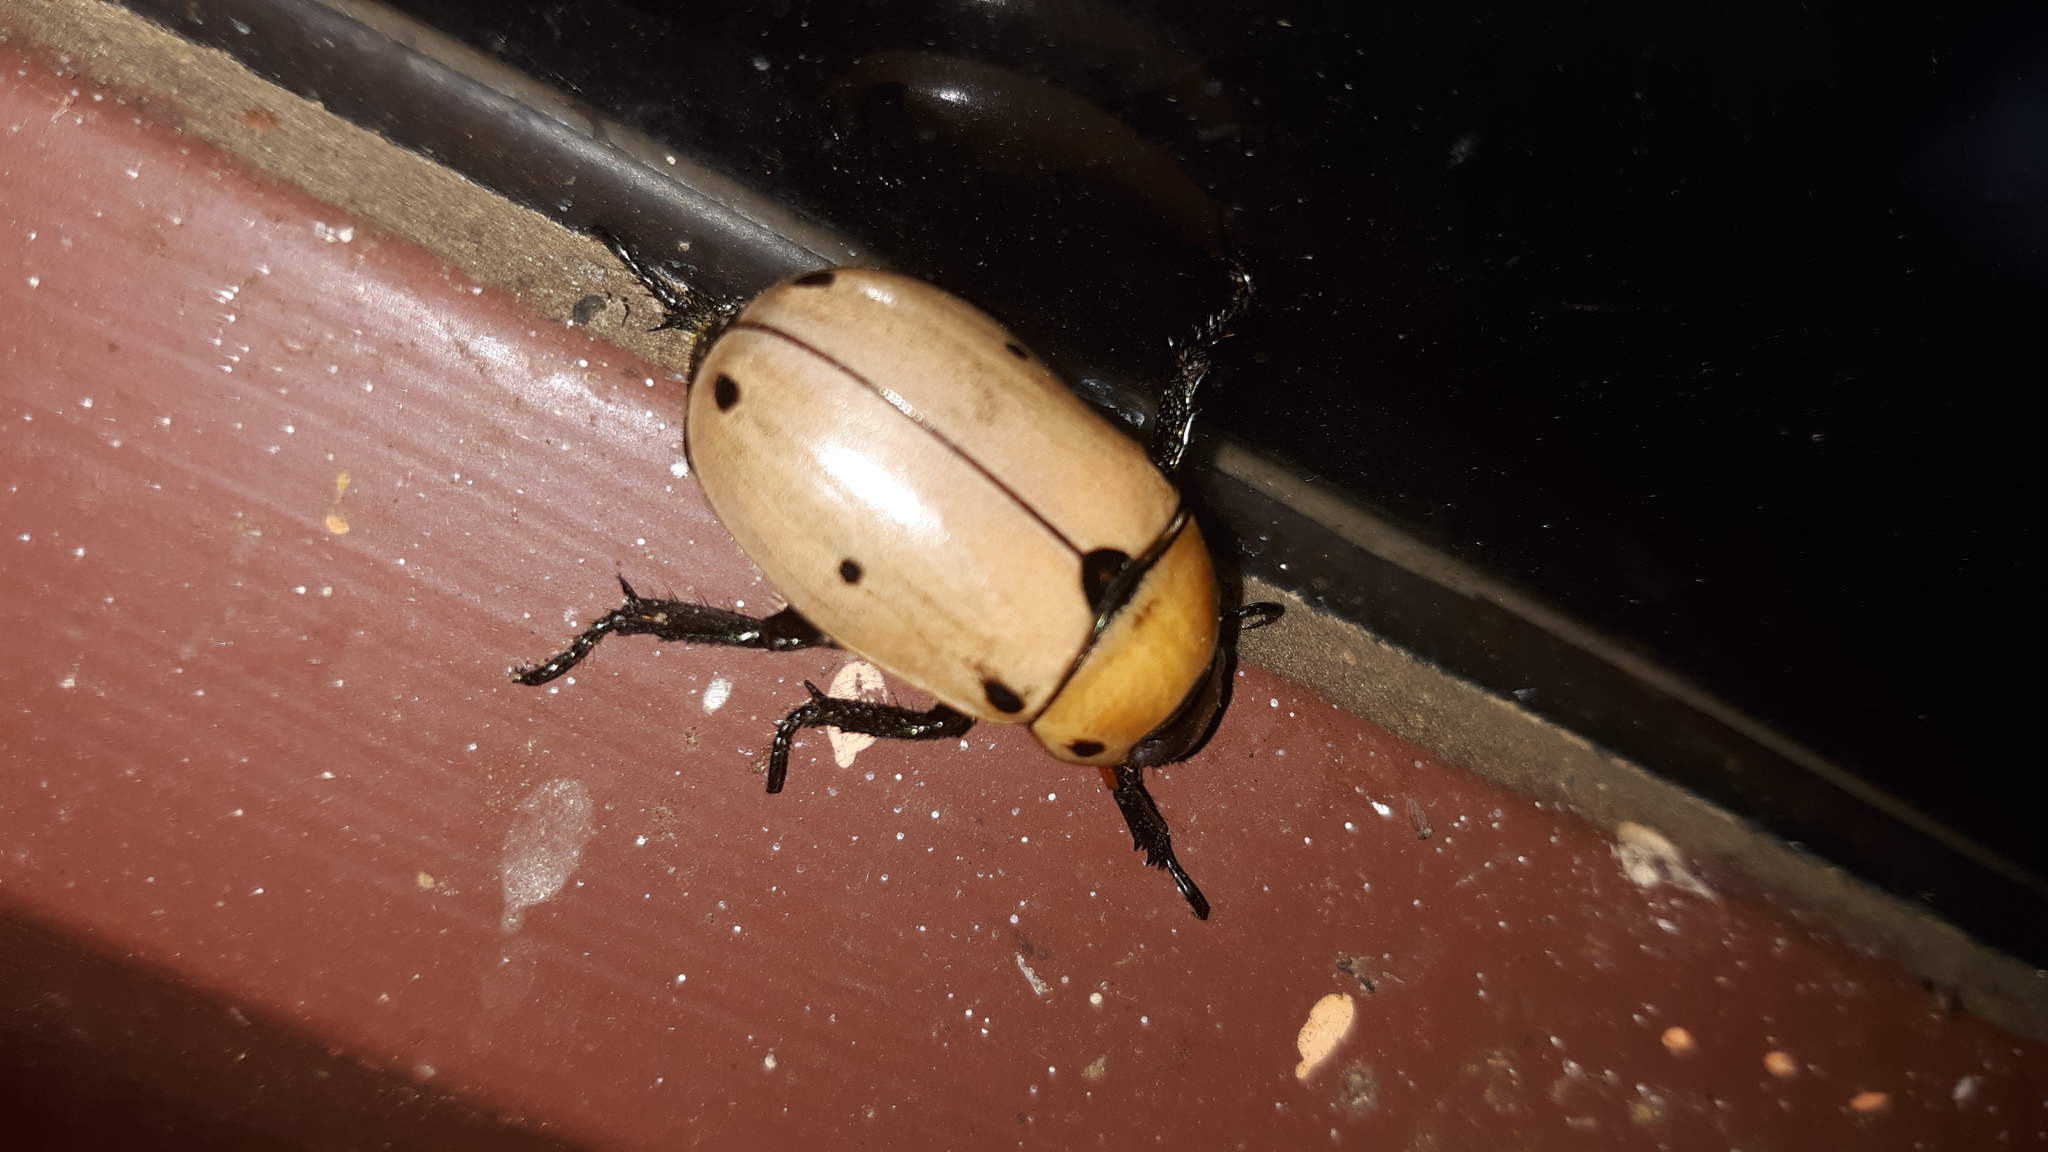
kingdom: Animalia
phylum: Arthropoda
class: Insecta
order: Coleoptera
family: Scarabaeidae
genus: Pelidnota
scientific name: Pelidnota punctata
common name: Grapevine beetle
